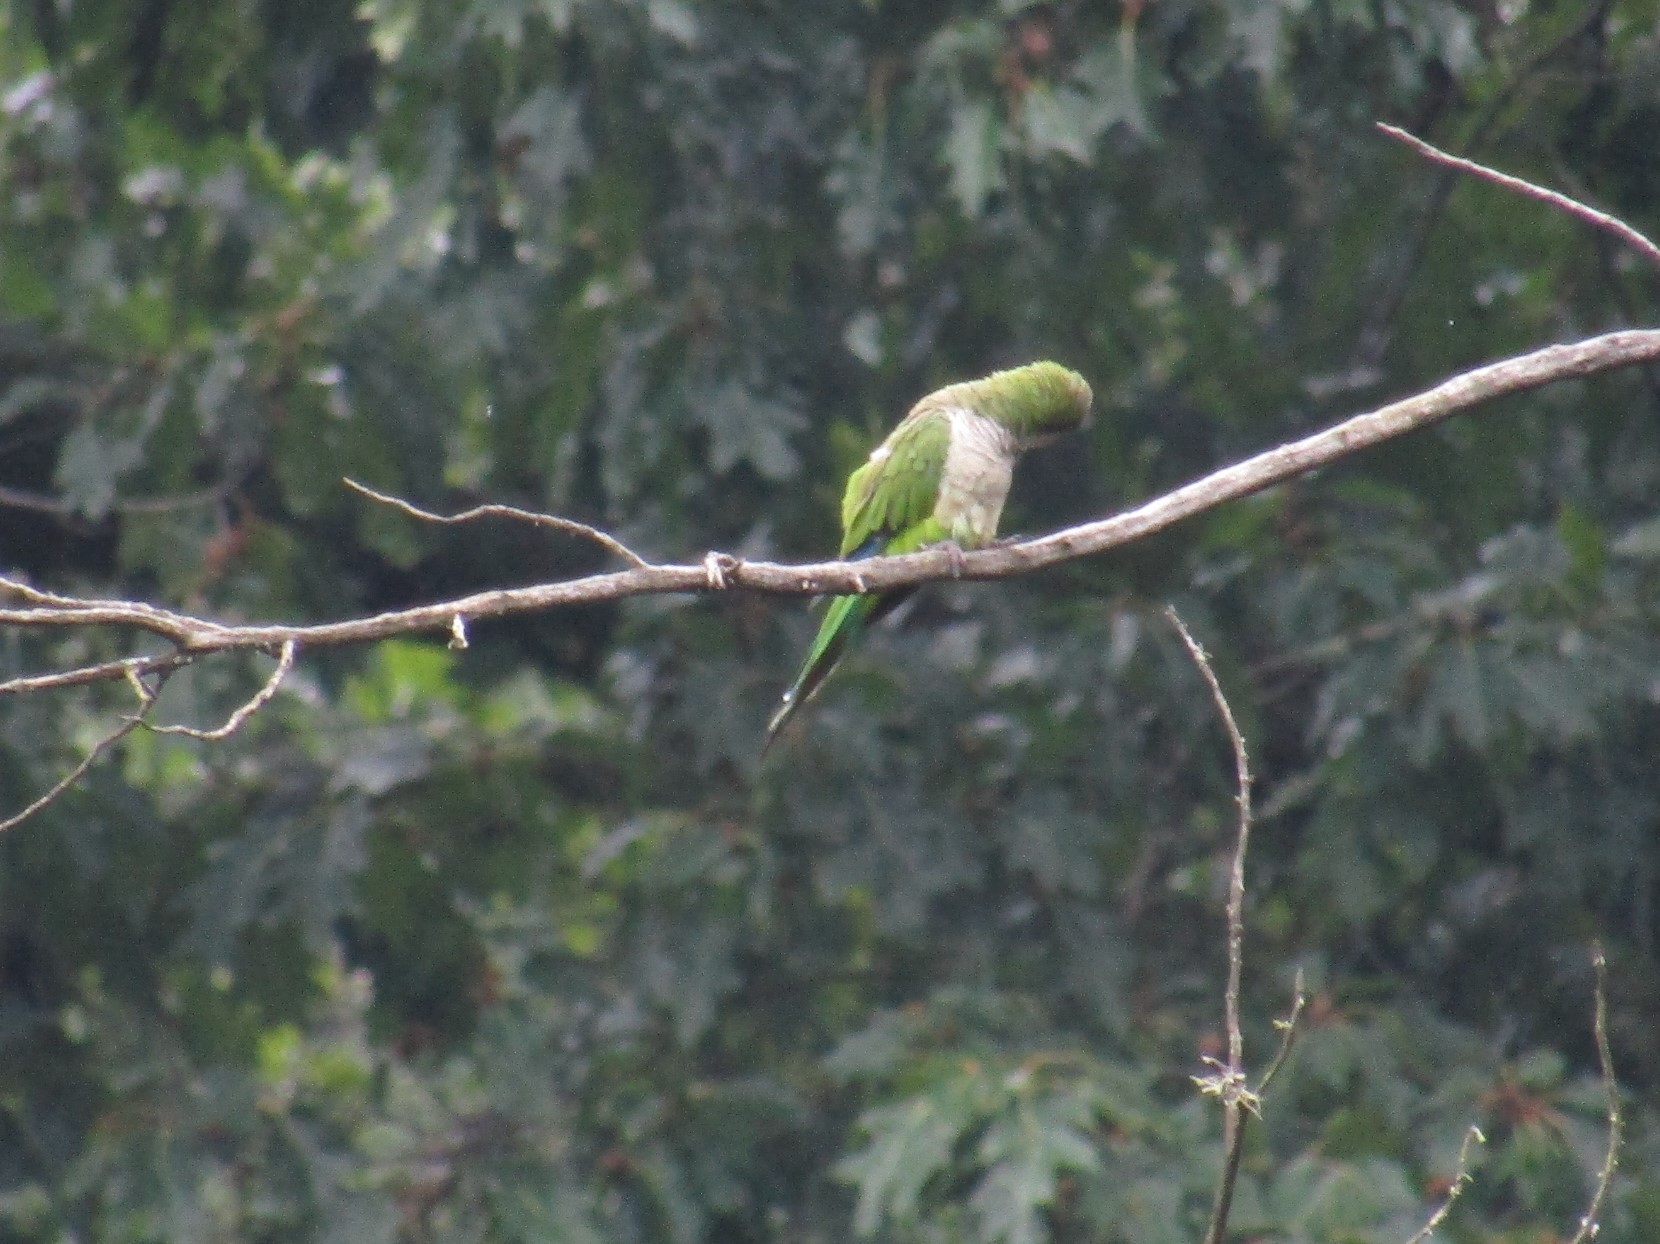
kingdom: Animalia
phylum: Chordata
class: Aves
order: Psittaciformes
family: Psittacidae
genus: Myiopsitta
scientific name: Myiopsitta monachus
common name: Monk parakeet
